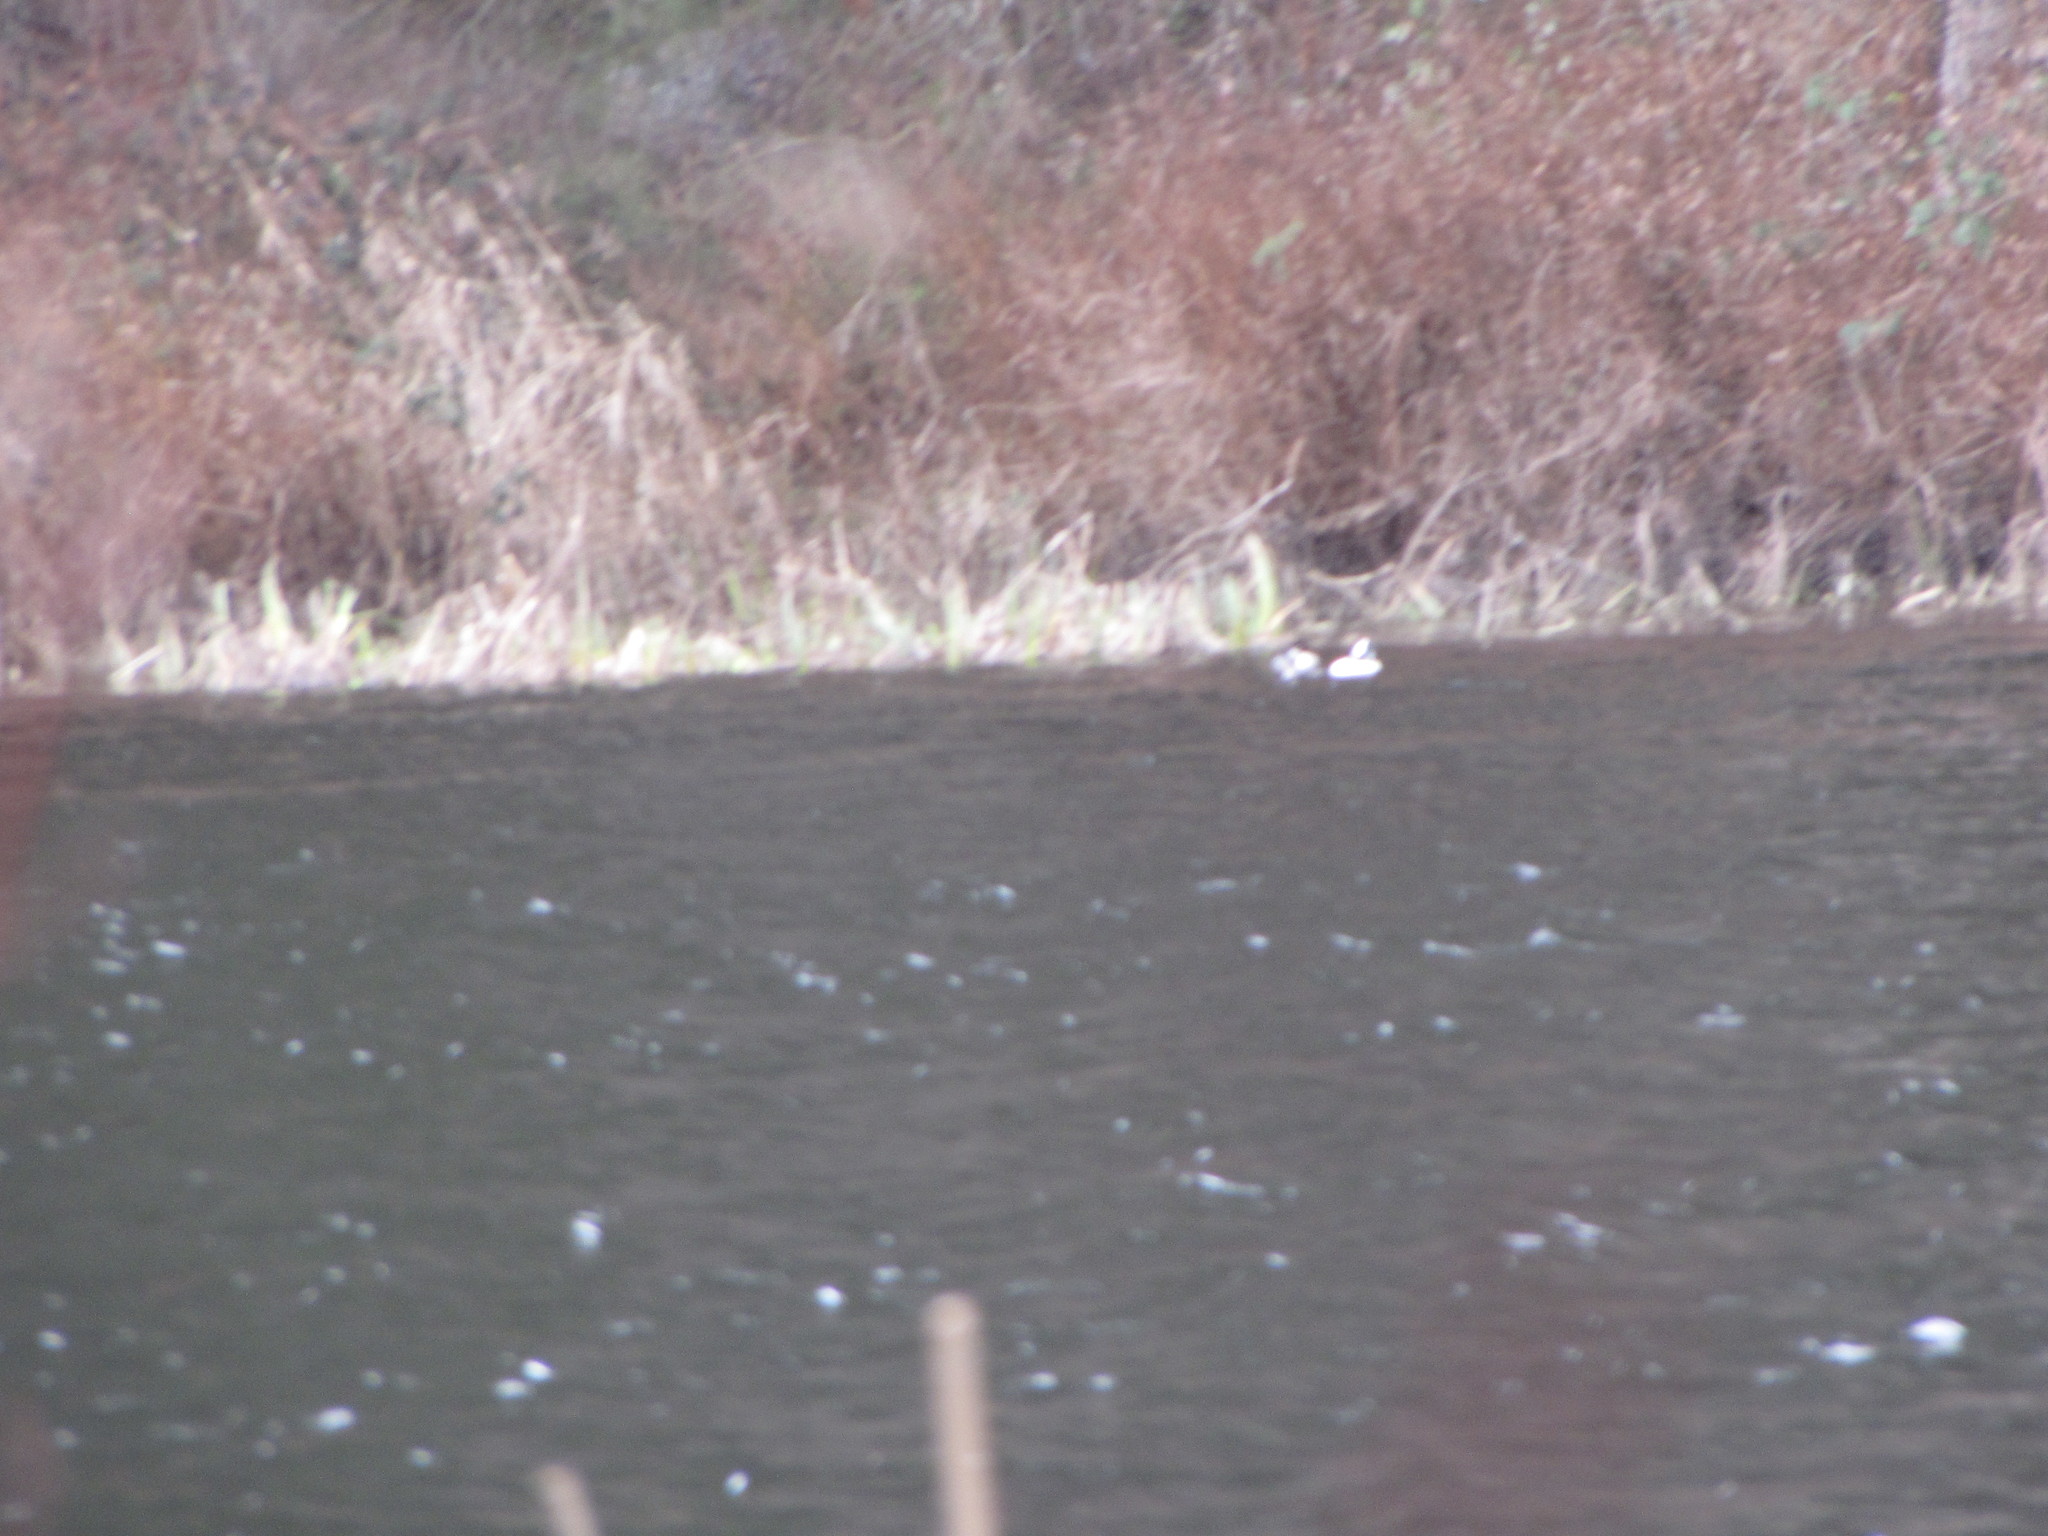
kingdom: Animalia
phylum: Chordata
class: Aves
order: Anseriformes
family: Anatidae
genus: Bucephala
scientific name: Bucephala albeola
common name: Bufflehead
